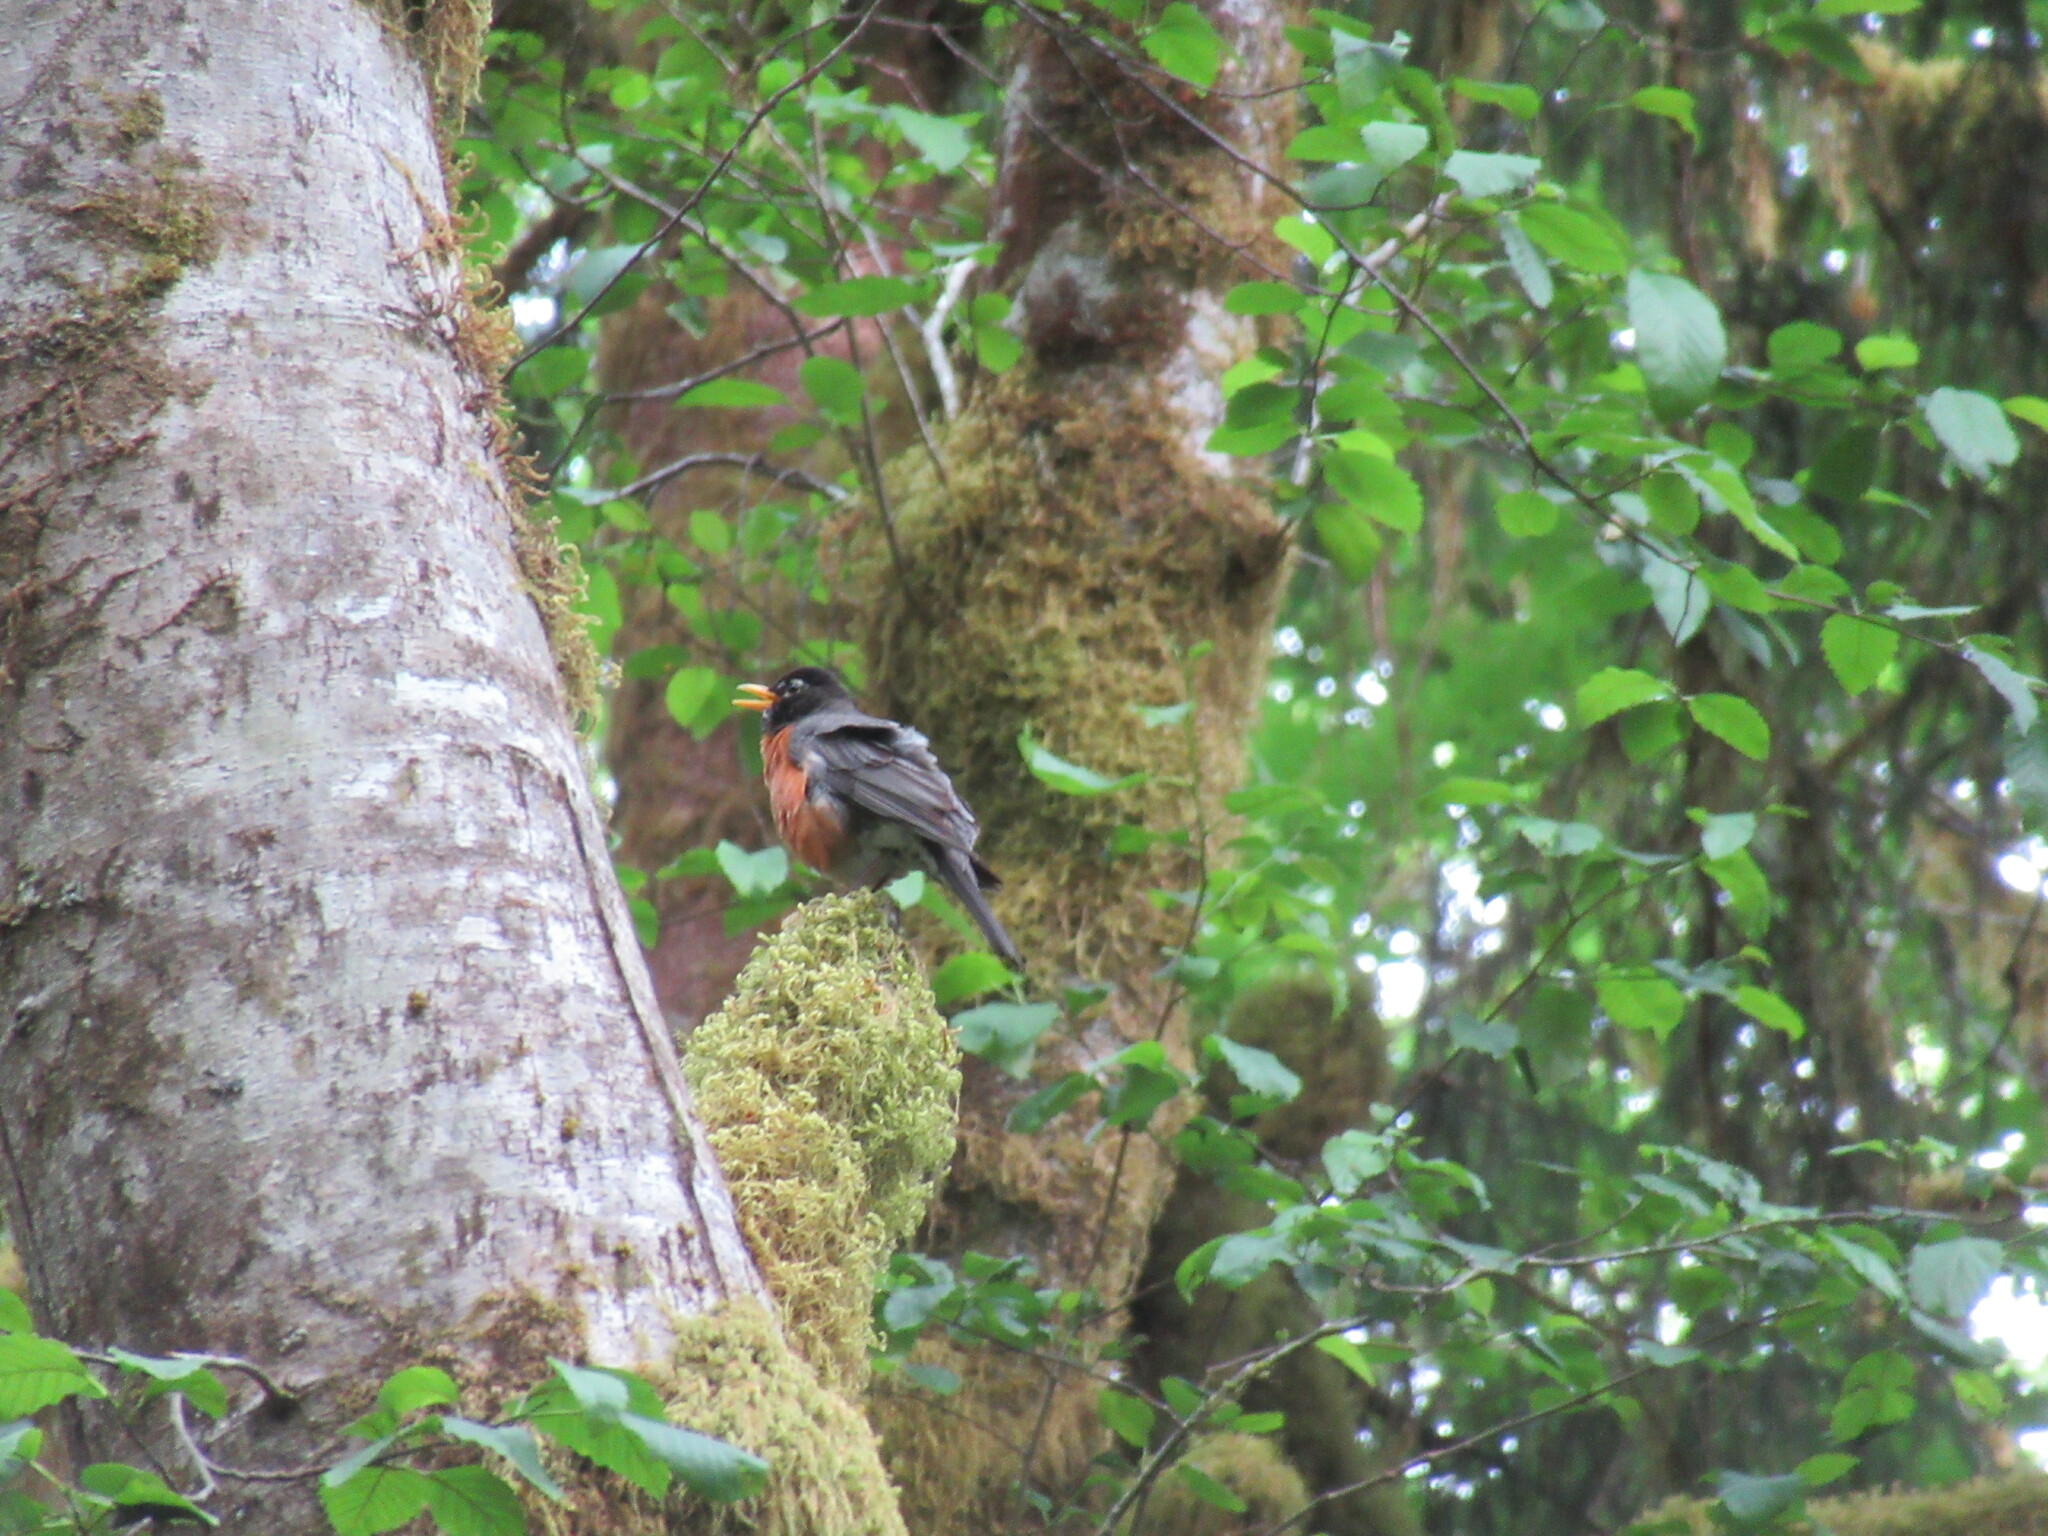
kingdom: Animalia
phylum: Chordata
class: Aves
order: Passeriformes
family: Turdidae
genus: Turdus
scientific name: Turdus migratorius
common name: American robin
